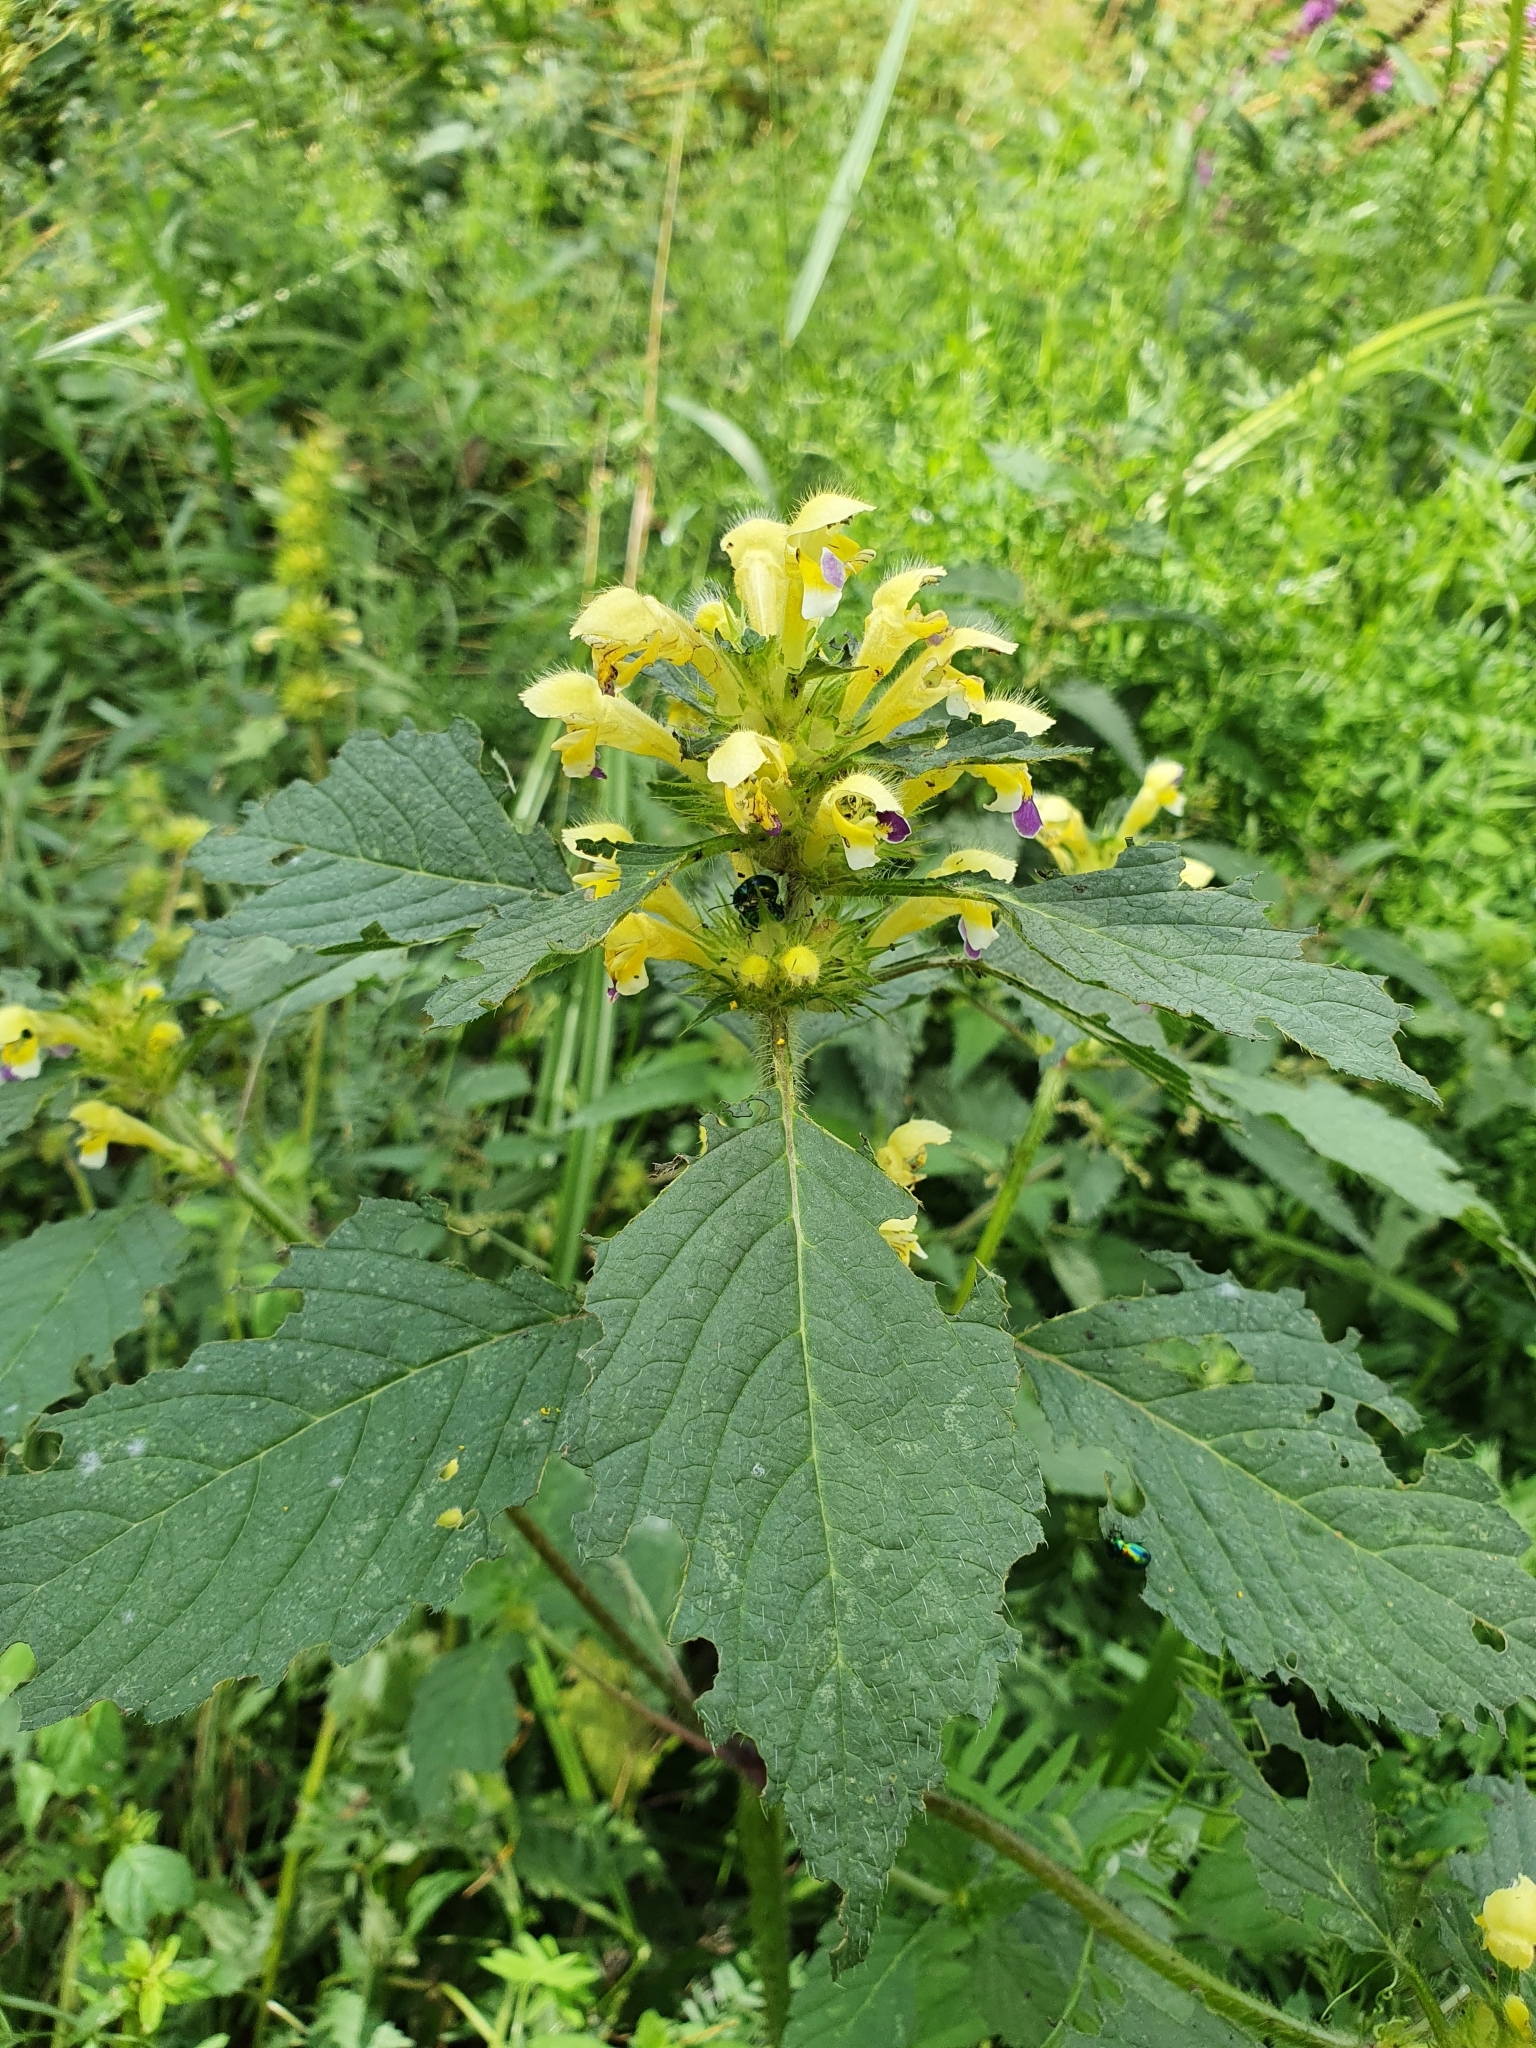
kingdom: Plantae
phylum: Tracheophyta
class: Magnoliopsida
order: Lamiales
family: Lamiaceae
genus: Galeopsis
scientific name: Galeopsis speciosa
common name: Large-flowered hemp-nettle
